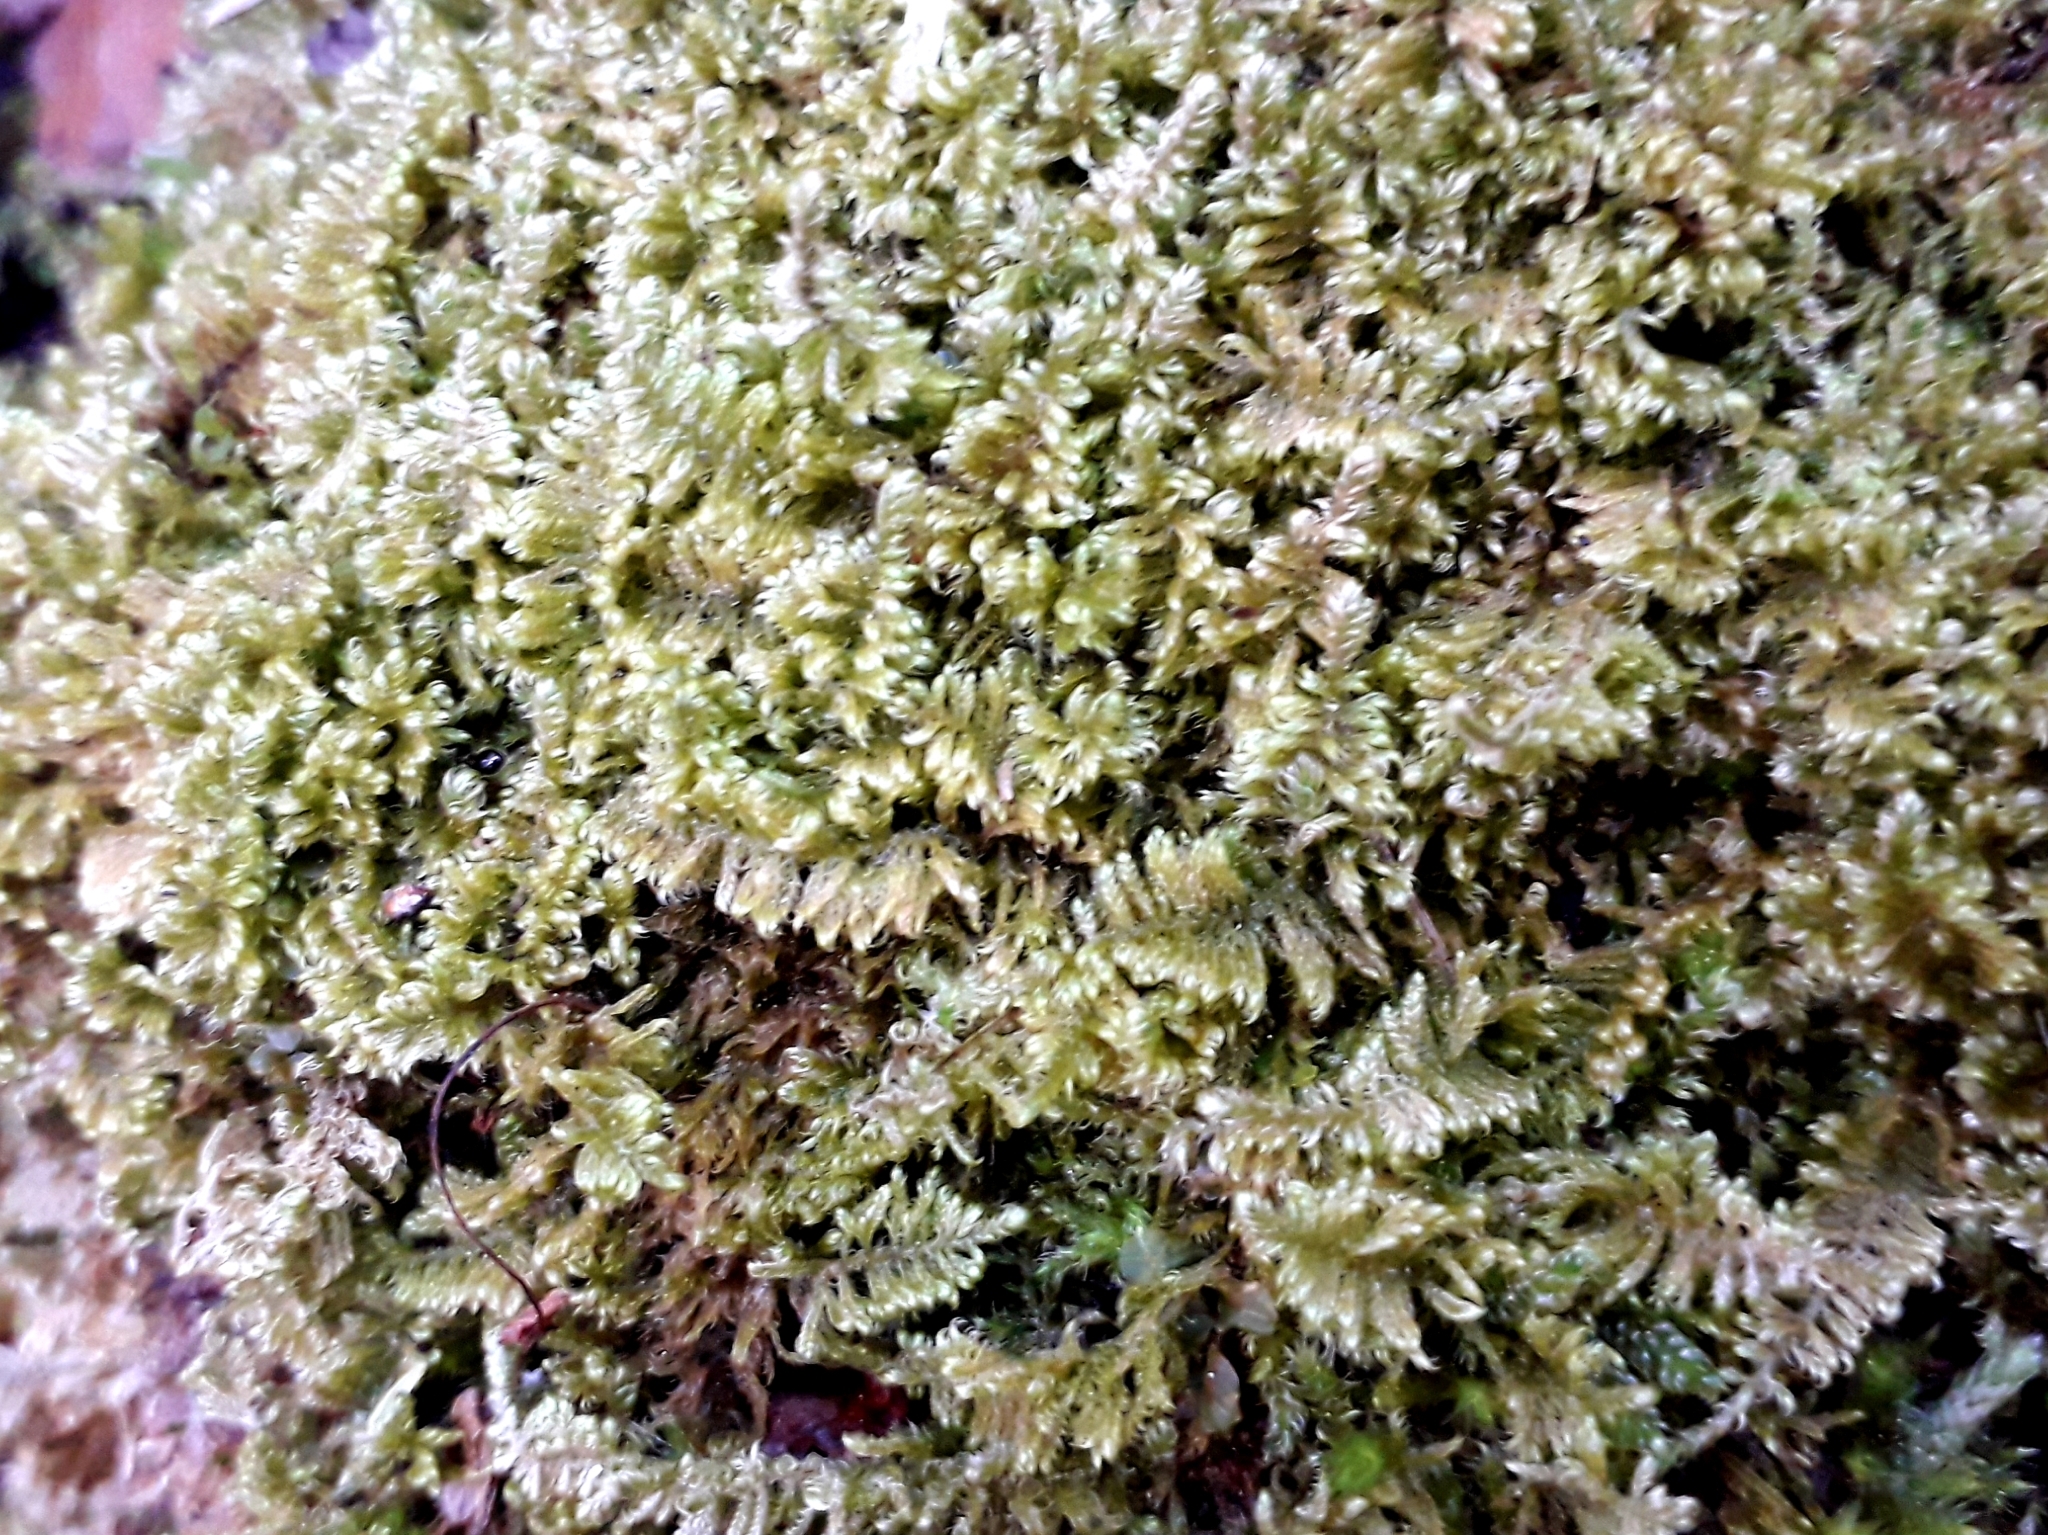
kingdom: Plantae
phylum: Bryophyta
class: Bryopsida
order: Hypnales
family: Myuriaceae
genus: Ctenidium
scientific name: Ctenidium molluscum
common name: Chalk comb-moss
